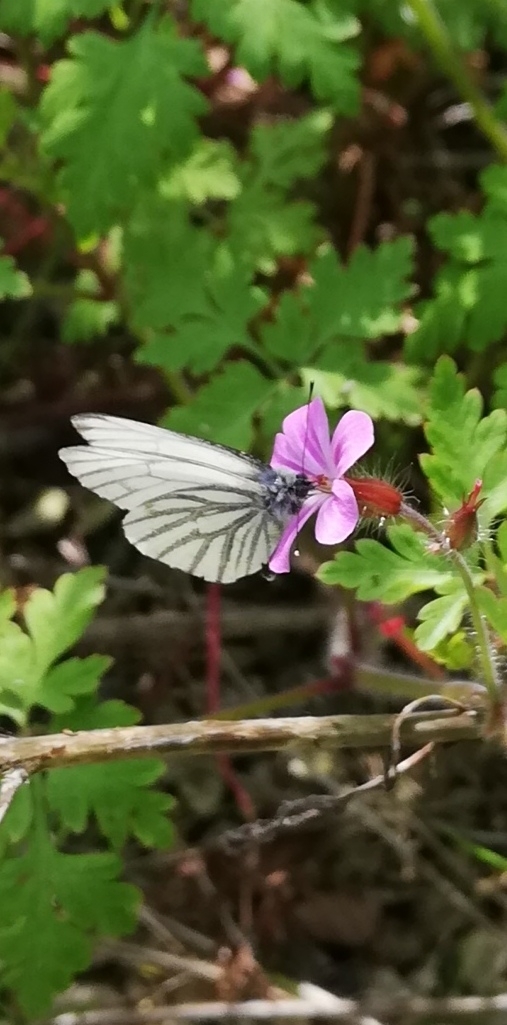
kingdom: Animalia
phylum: Arthropoda
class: Insecta
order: Lepidoptera
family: Pieridae
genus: Pieris
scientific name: Pieris napi
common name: Green-veined white
